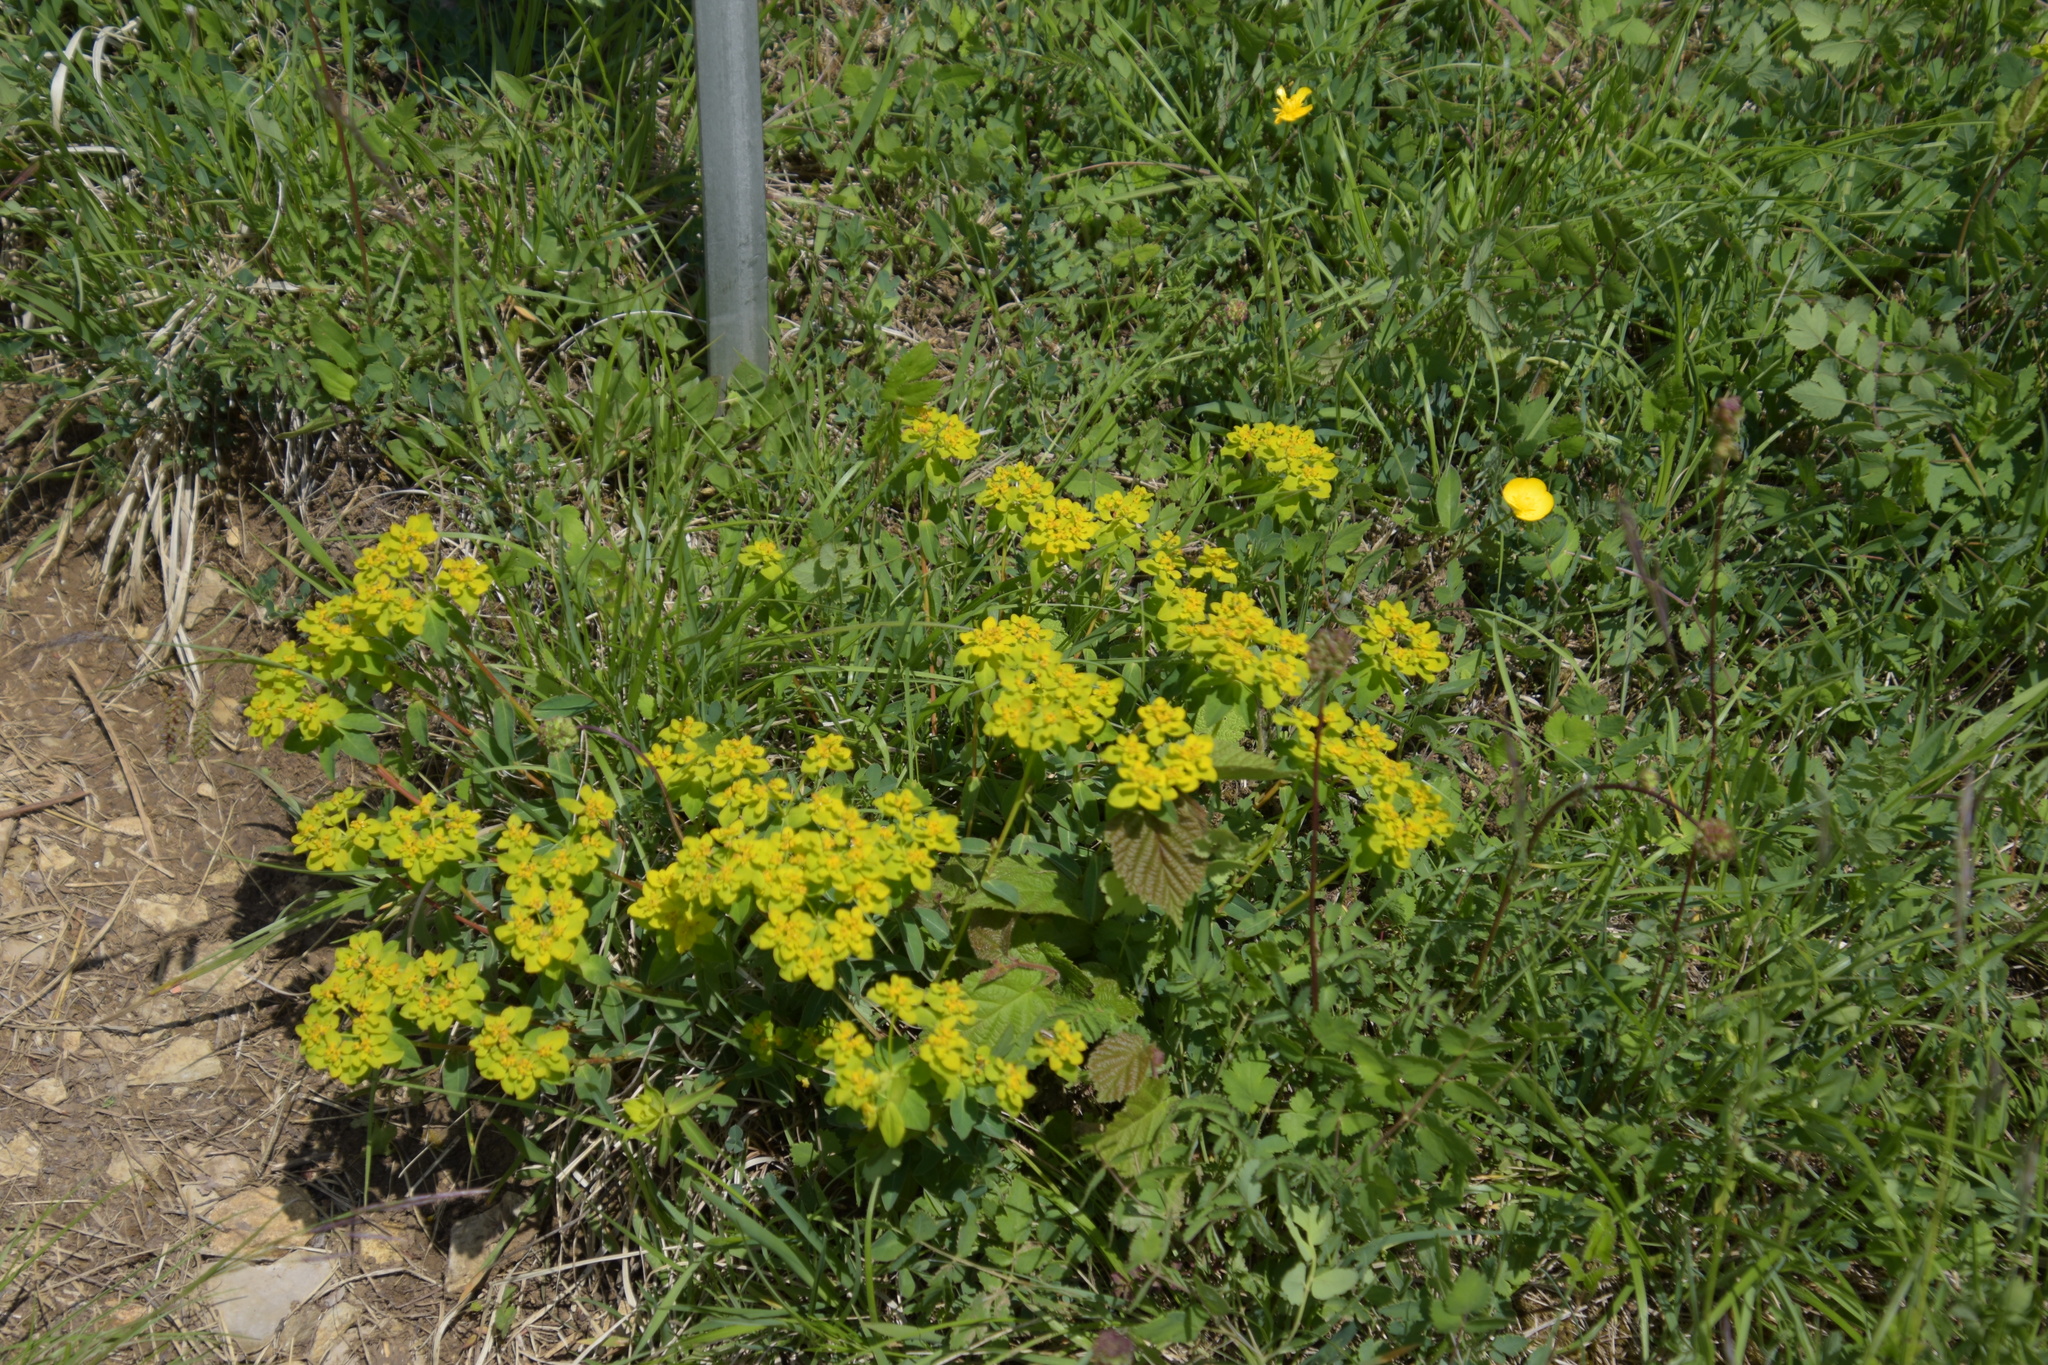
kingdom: Plantae
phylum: Tracheophyta
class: Magnoliopsida
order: Malpighiales
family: Euphorbiaceae
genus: Euphorbia
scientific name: Euphorbia verrucosa
